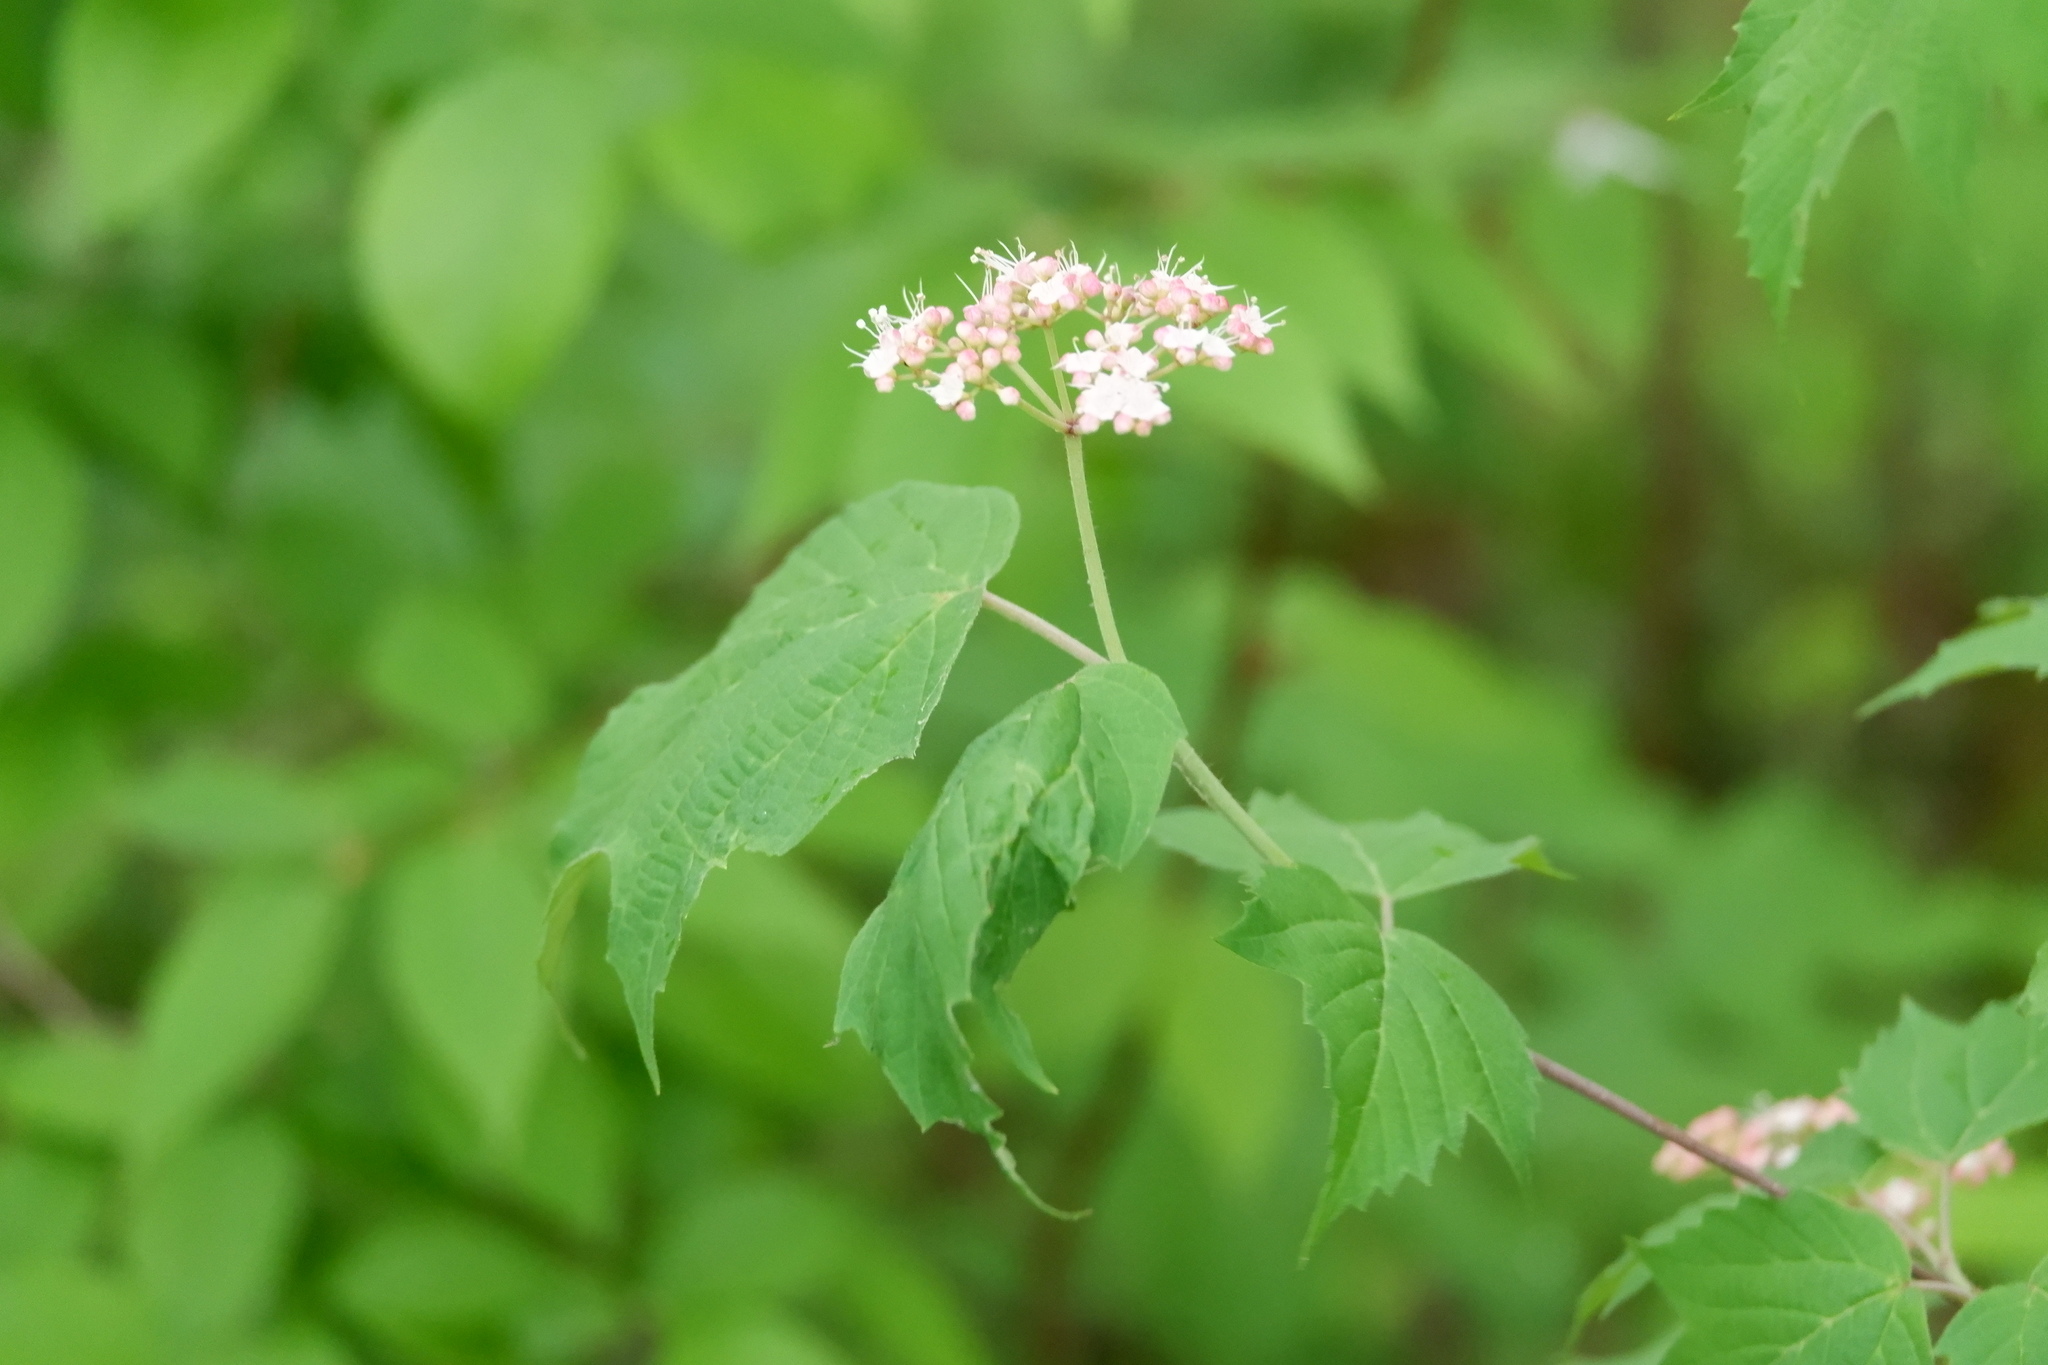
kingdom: Plantae
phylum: Tracheophyta
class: Magnoliopsida
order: Dipsacales
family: Viburnaceae
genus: Viburnum
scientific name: Viburnum acerifolium
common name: Dockmackie
